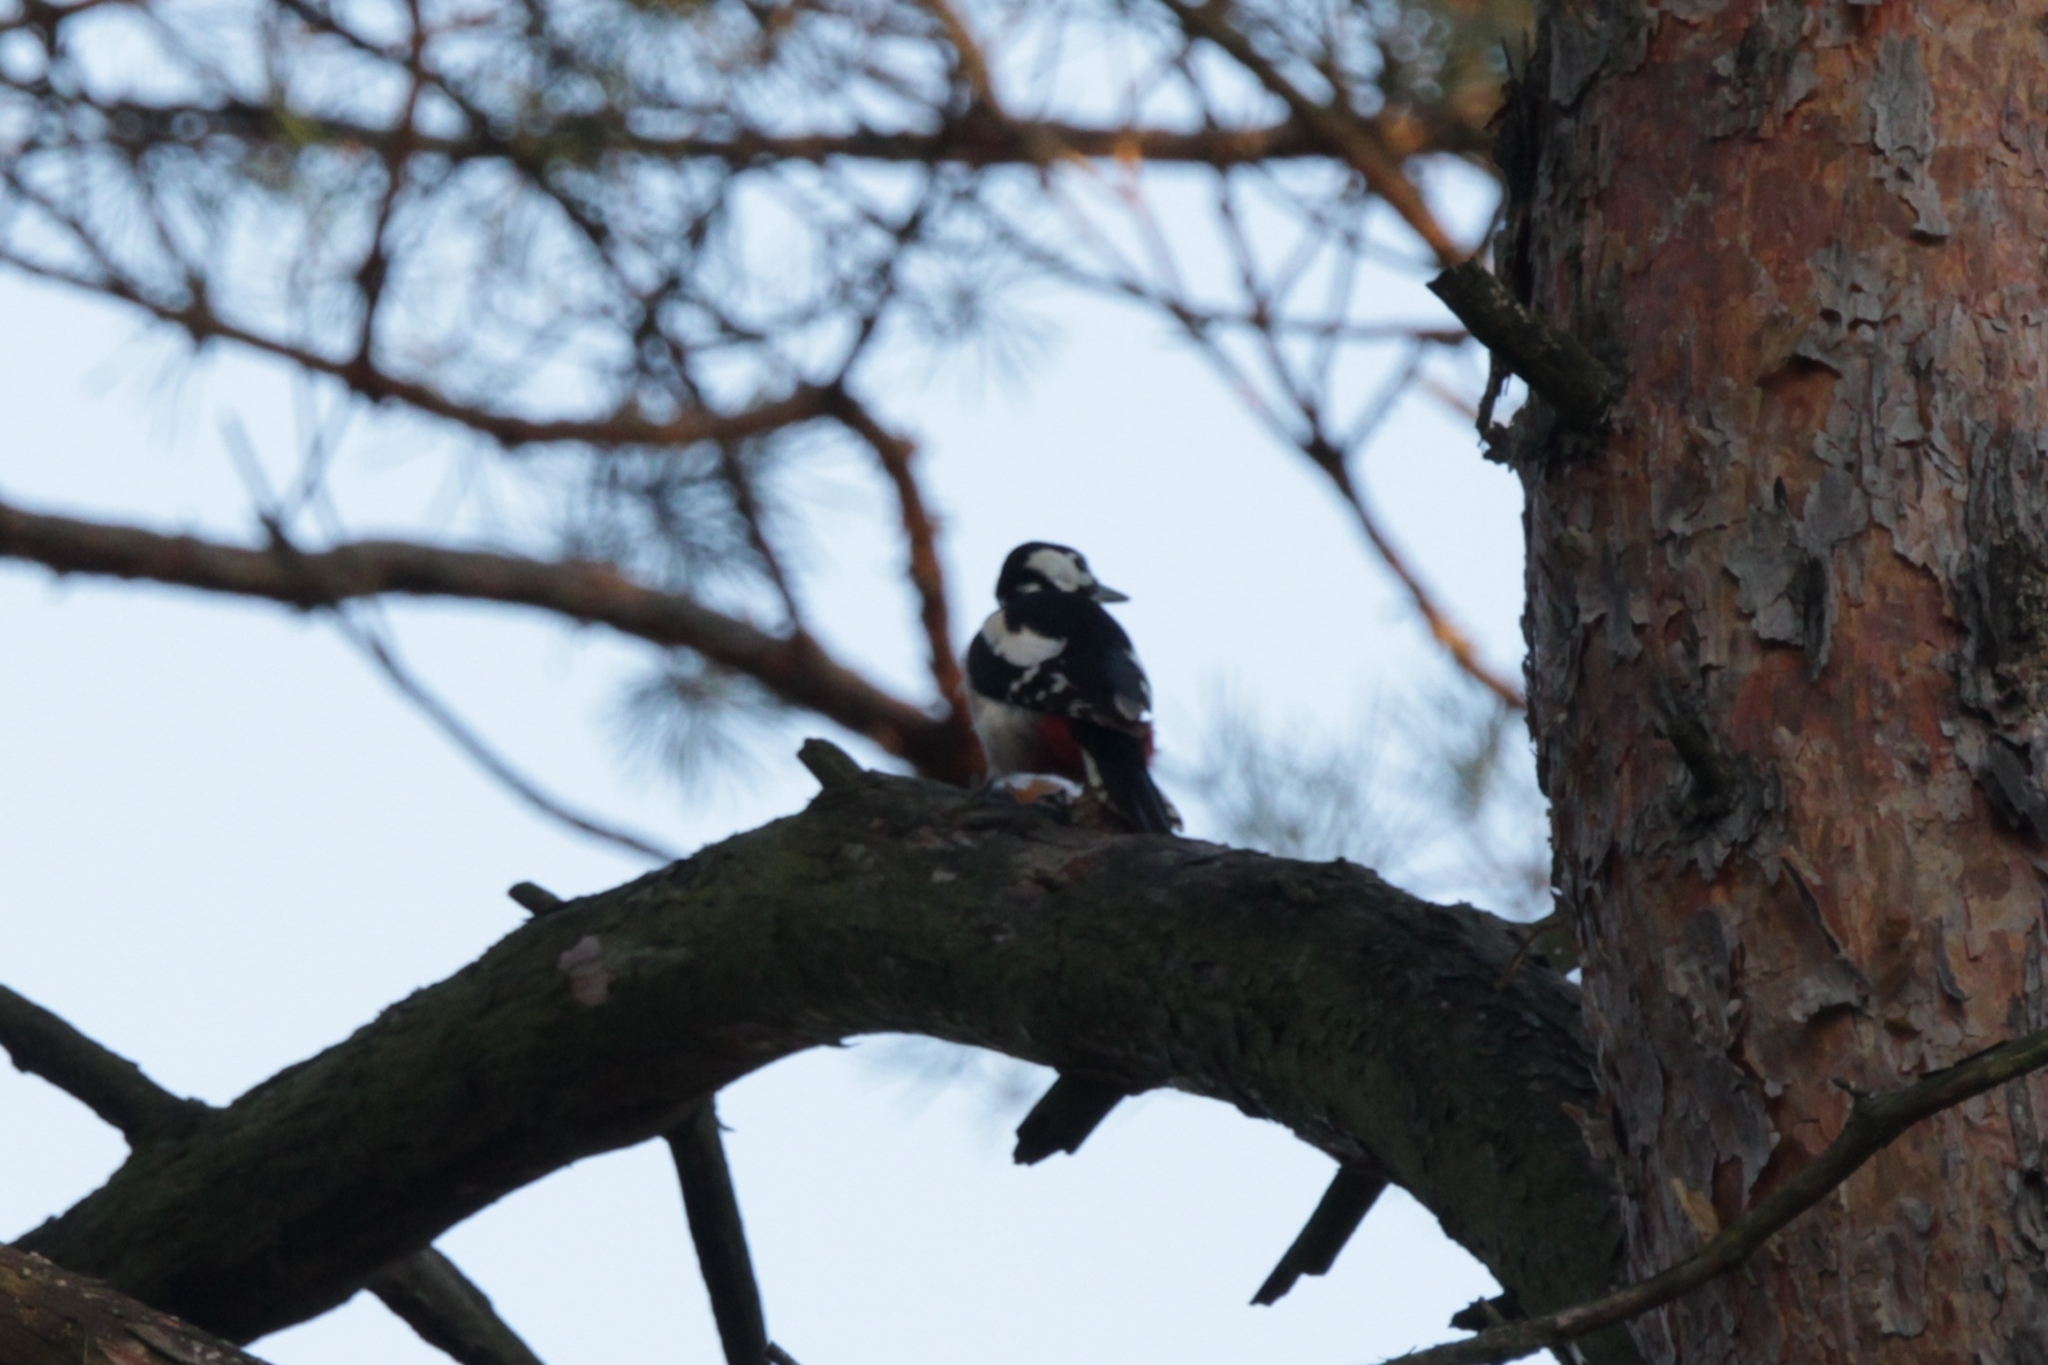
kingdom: Animalia
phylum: Chordata
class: Aves
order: Piciformes
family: Picidae
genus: Dendrocopos
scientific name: Dendrocopos major
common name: Great spotted woodpecker
